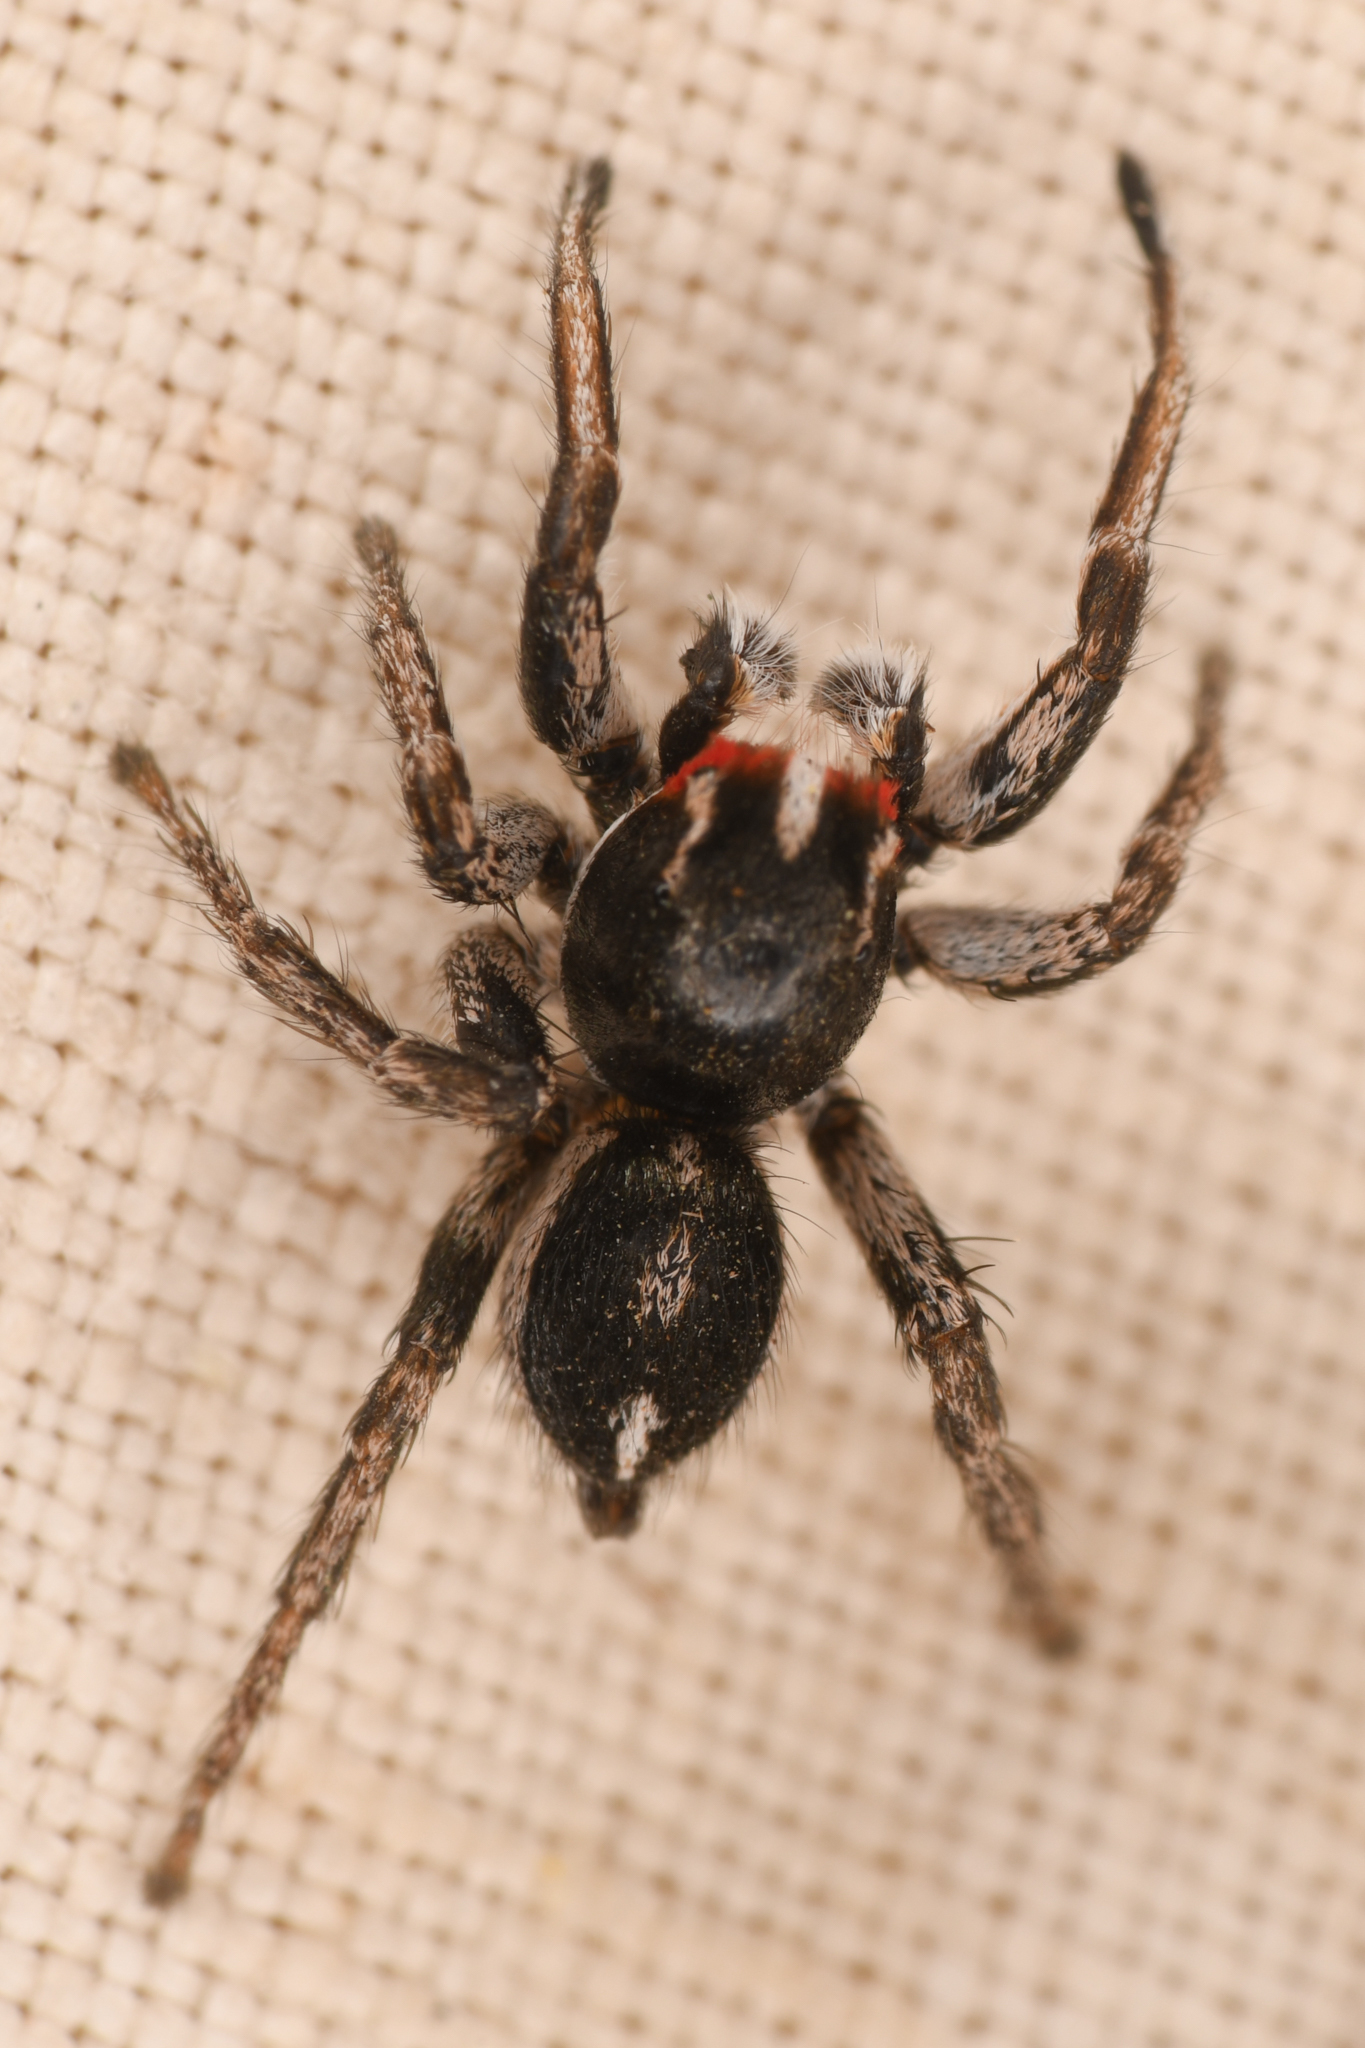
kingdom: Animalia
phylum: Arthropoda
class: Arachnida
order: Araneae
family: Salticidae
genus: Habronattus
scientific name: Habronattus sansoni
